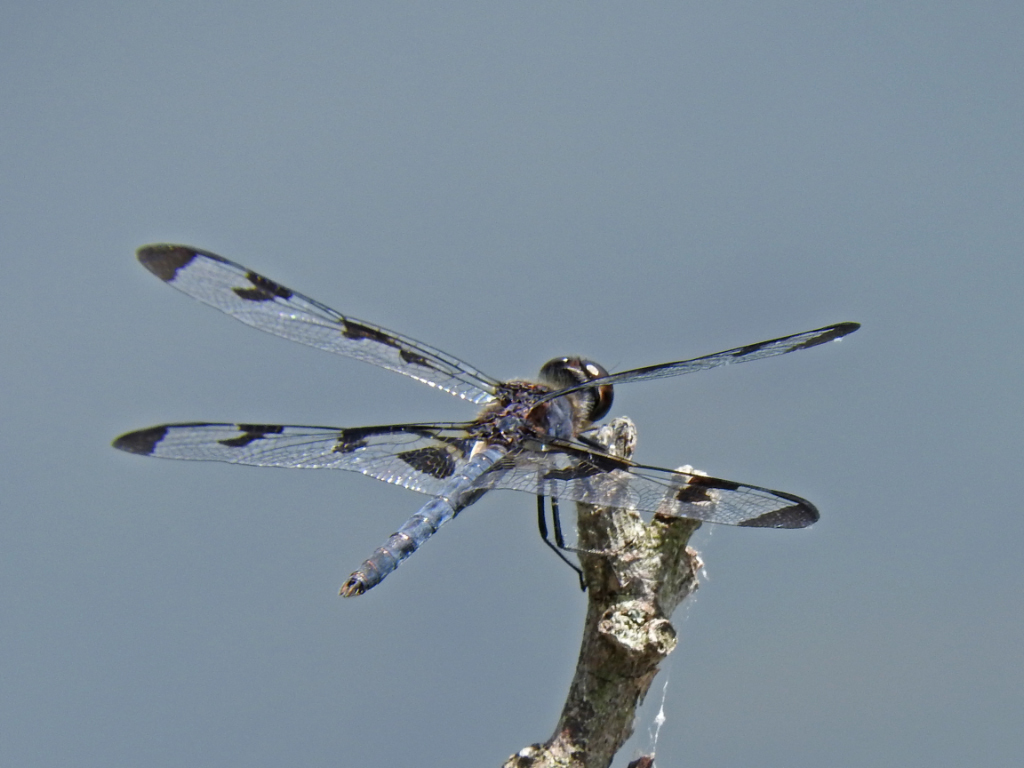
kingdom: Animalia
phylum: Arthropoda
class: Insecta
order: Odonata
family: Libellulidae
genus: Celithemis
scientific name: Celithemis fasciata
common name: Banded pennant
